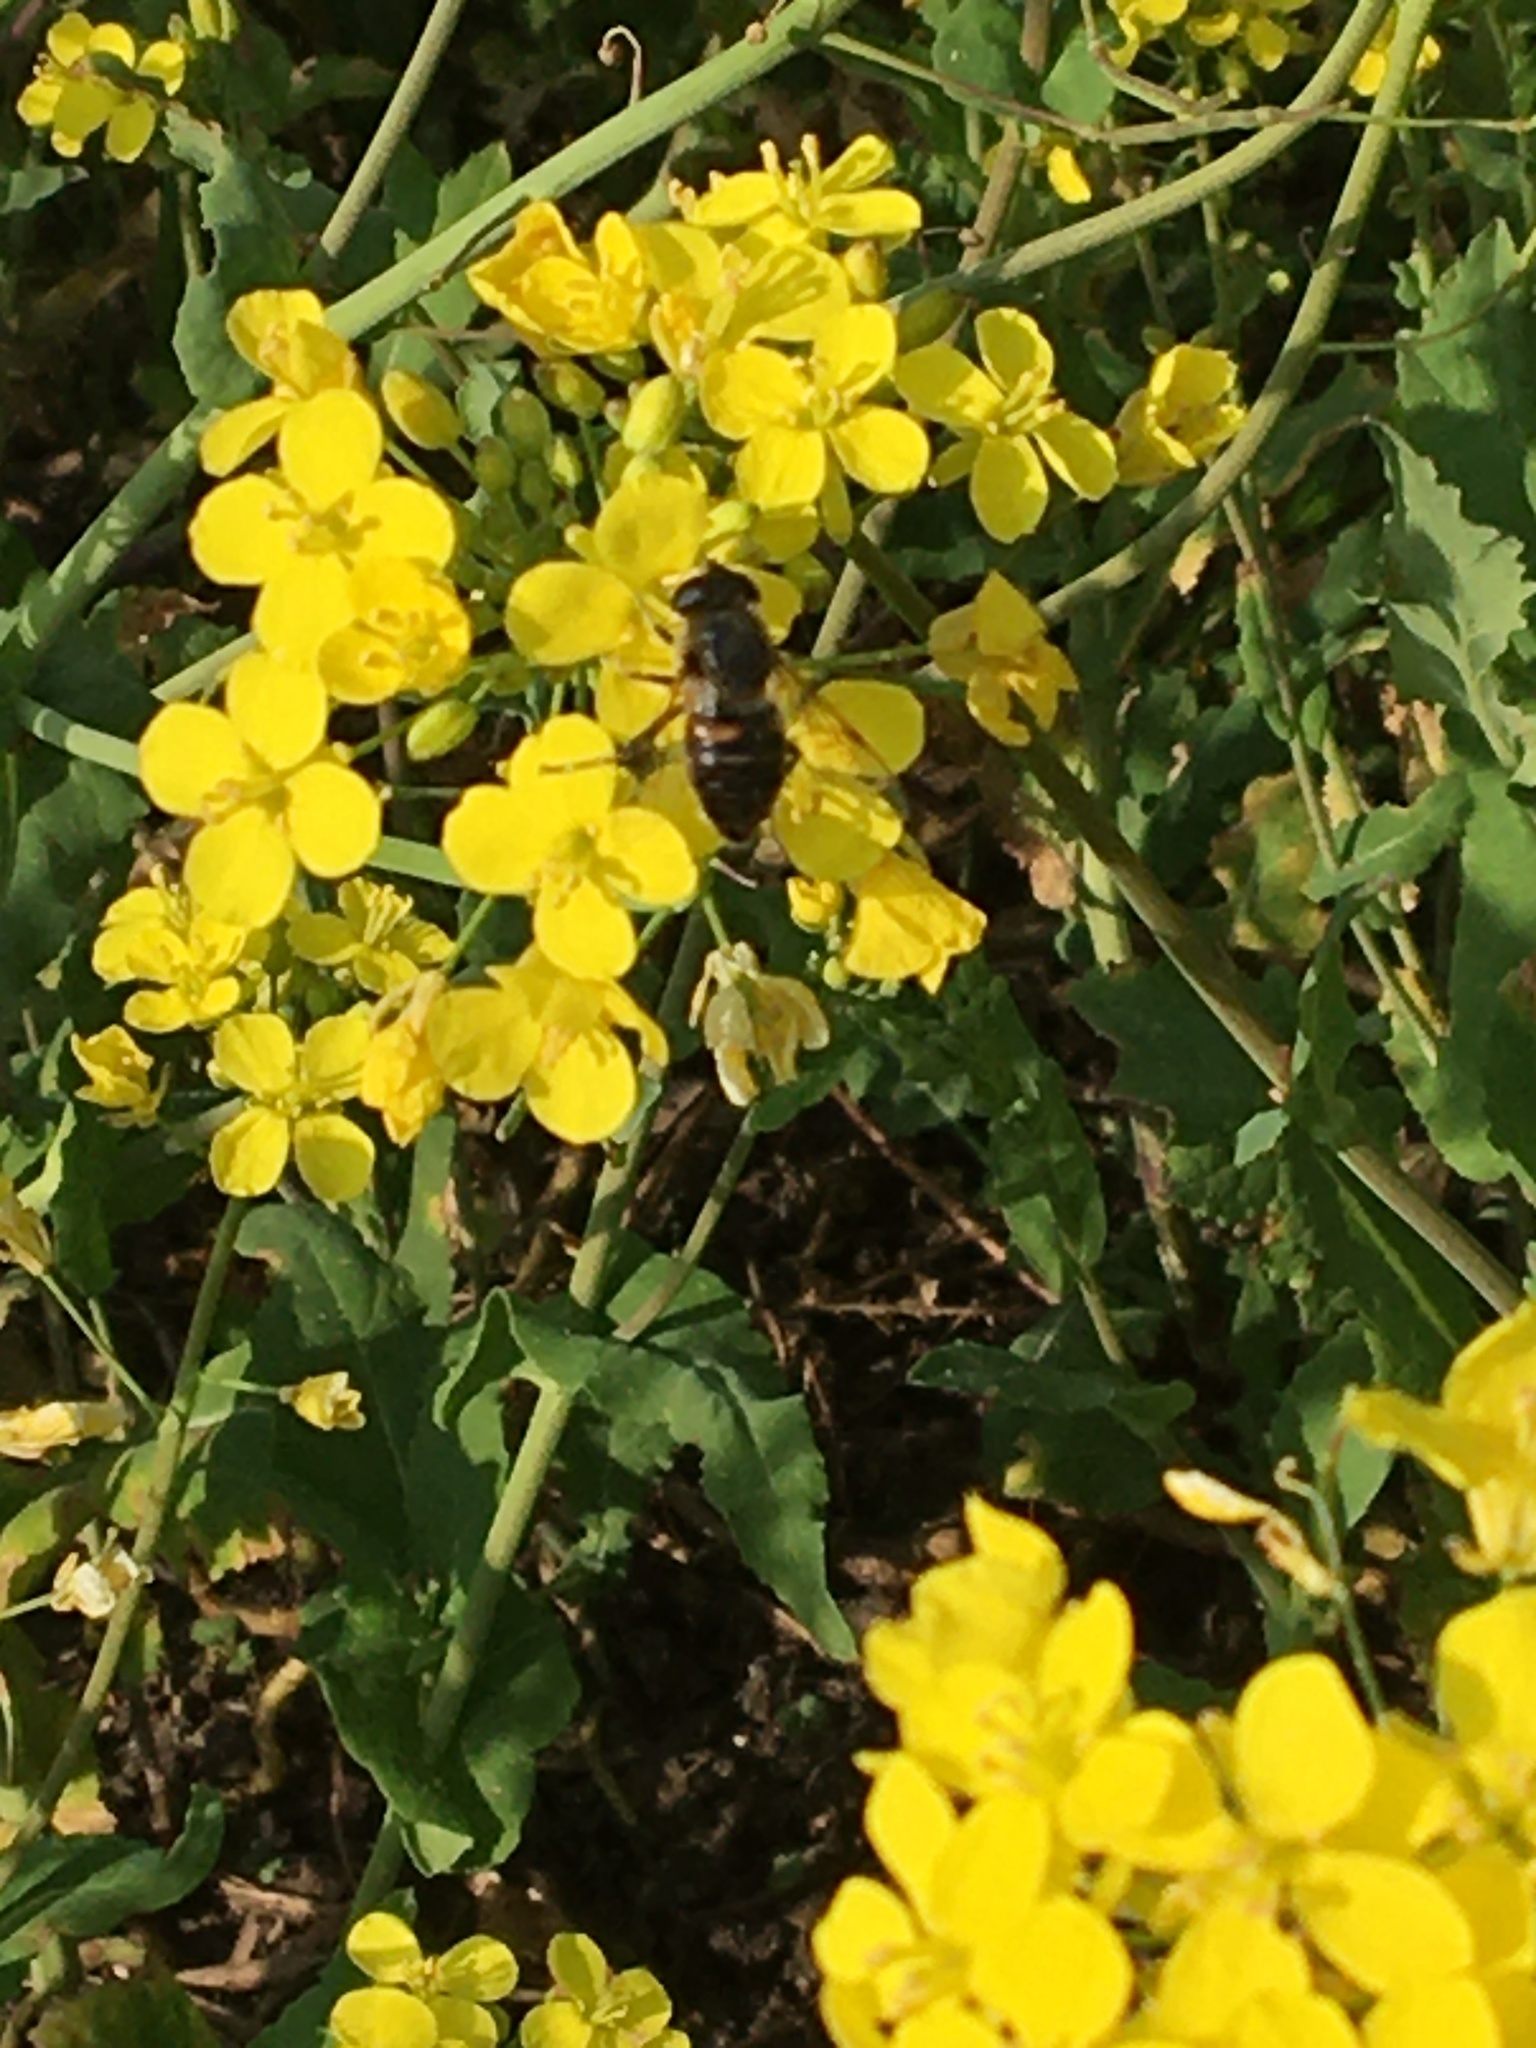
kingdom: Animalia
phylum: Arthropoda
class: Insecta
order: Diptera
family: Syrphidae
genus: Eristalis
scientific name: Eristalis tenax
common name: Drone fly
